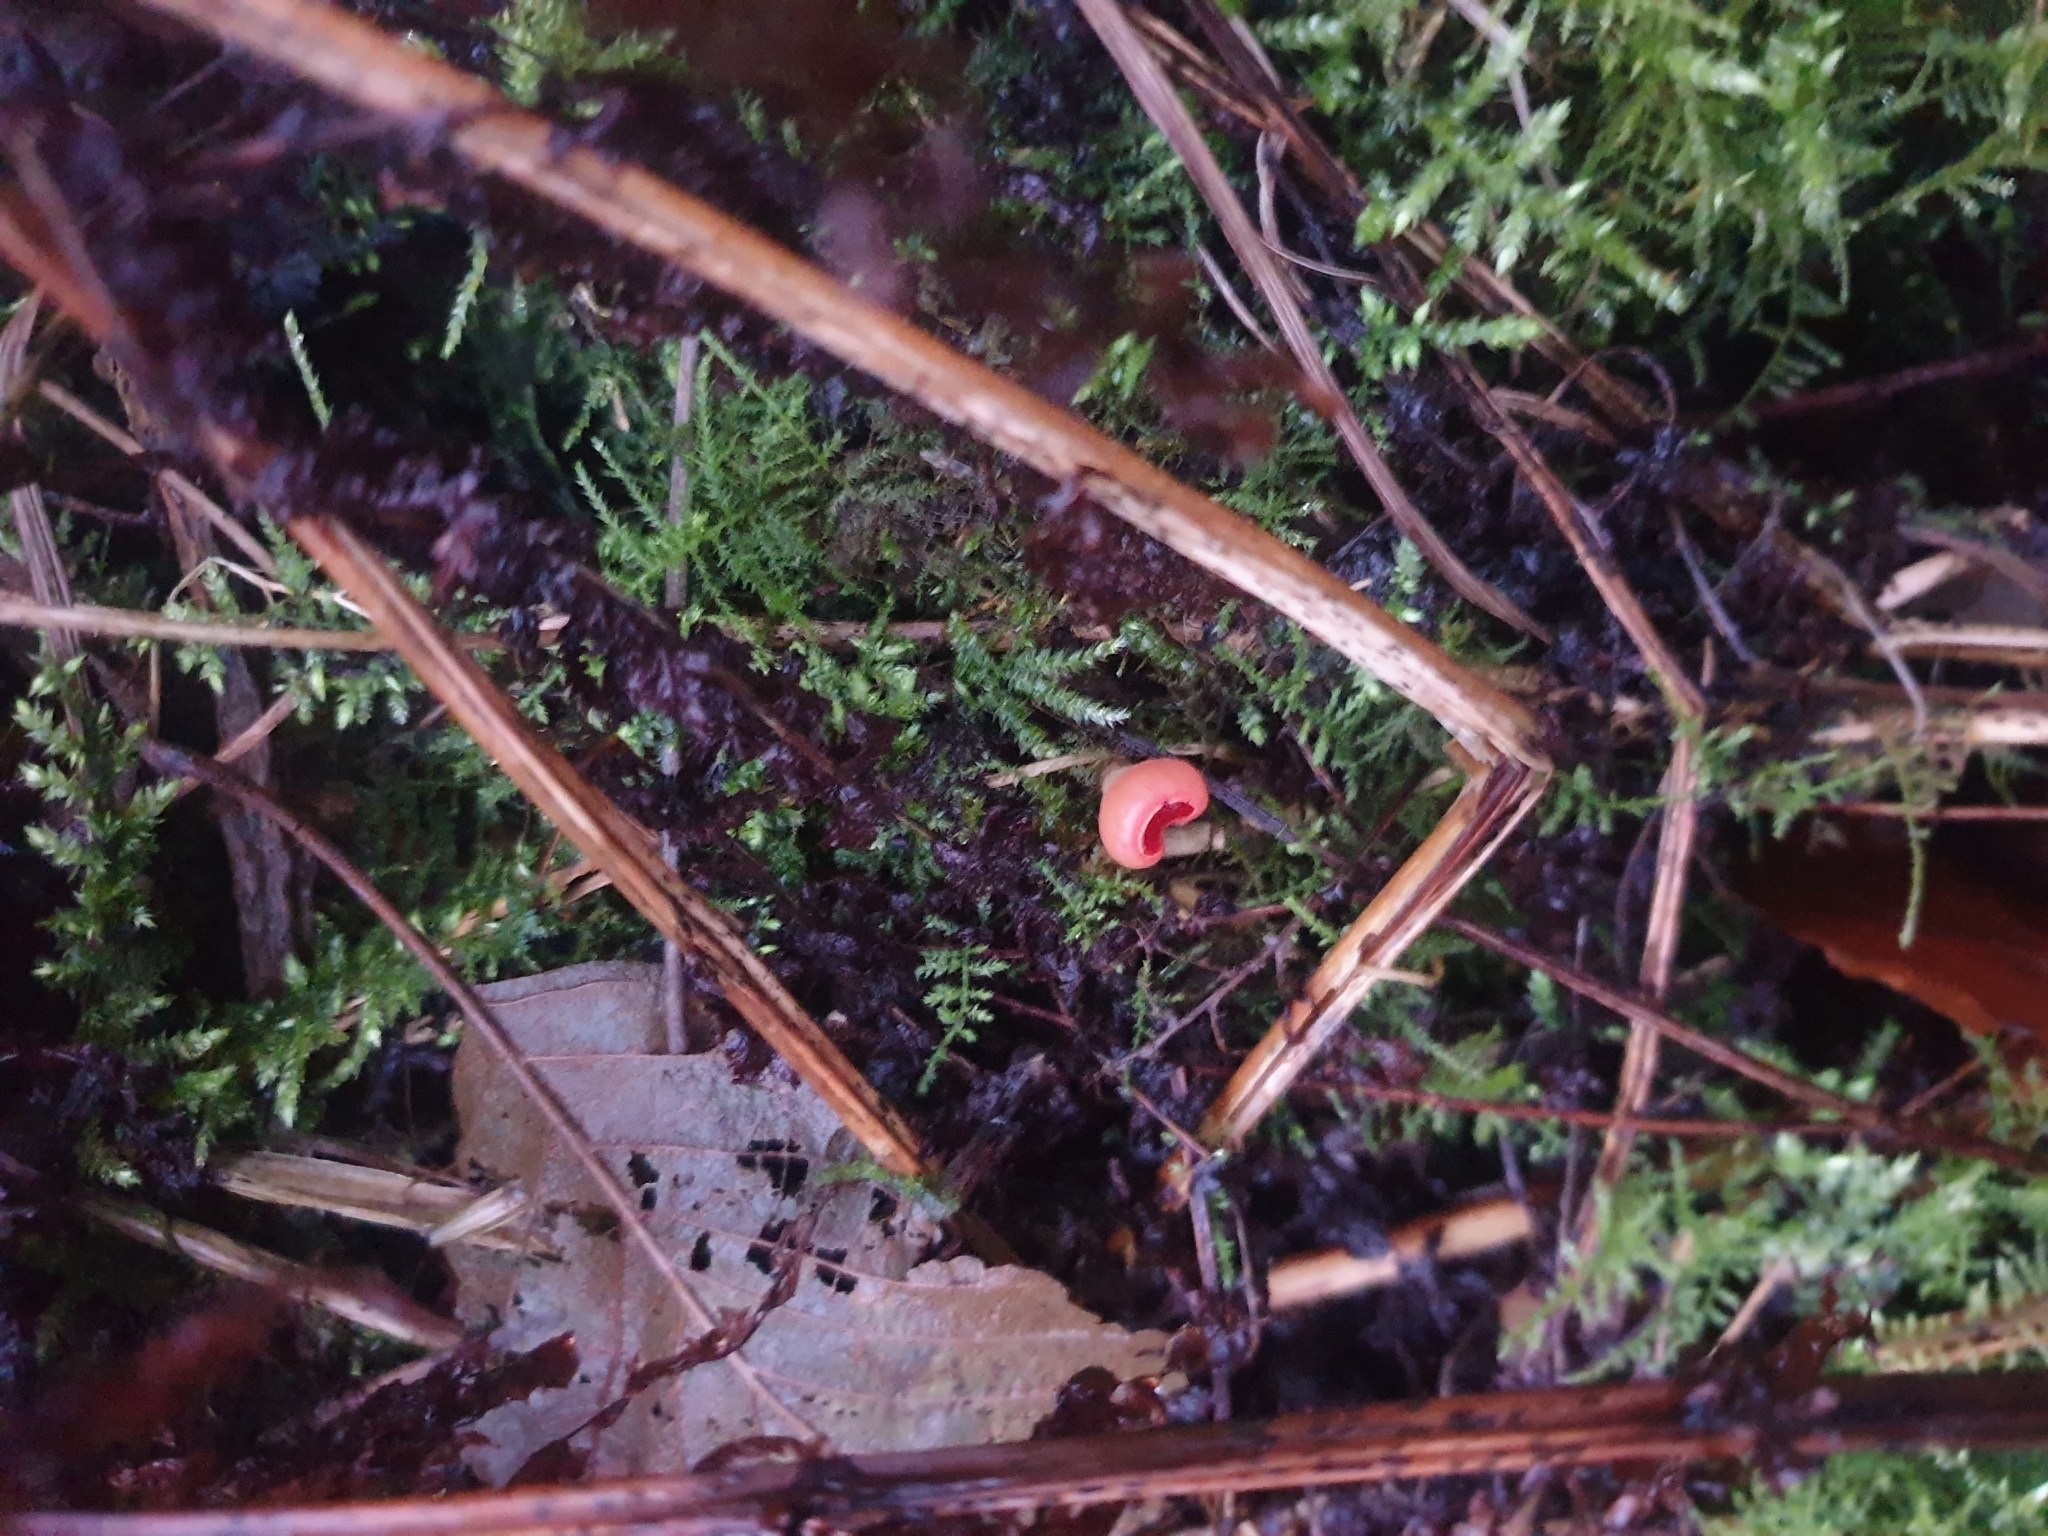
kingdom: Fungi
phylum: Ascomycota
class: Pezizomycetes
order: Pezizales
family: Sarcoscyphaceae
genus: Sarcoscypha
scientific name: Sarcoscypha austriaca
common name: Scarlet elfcup
